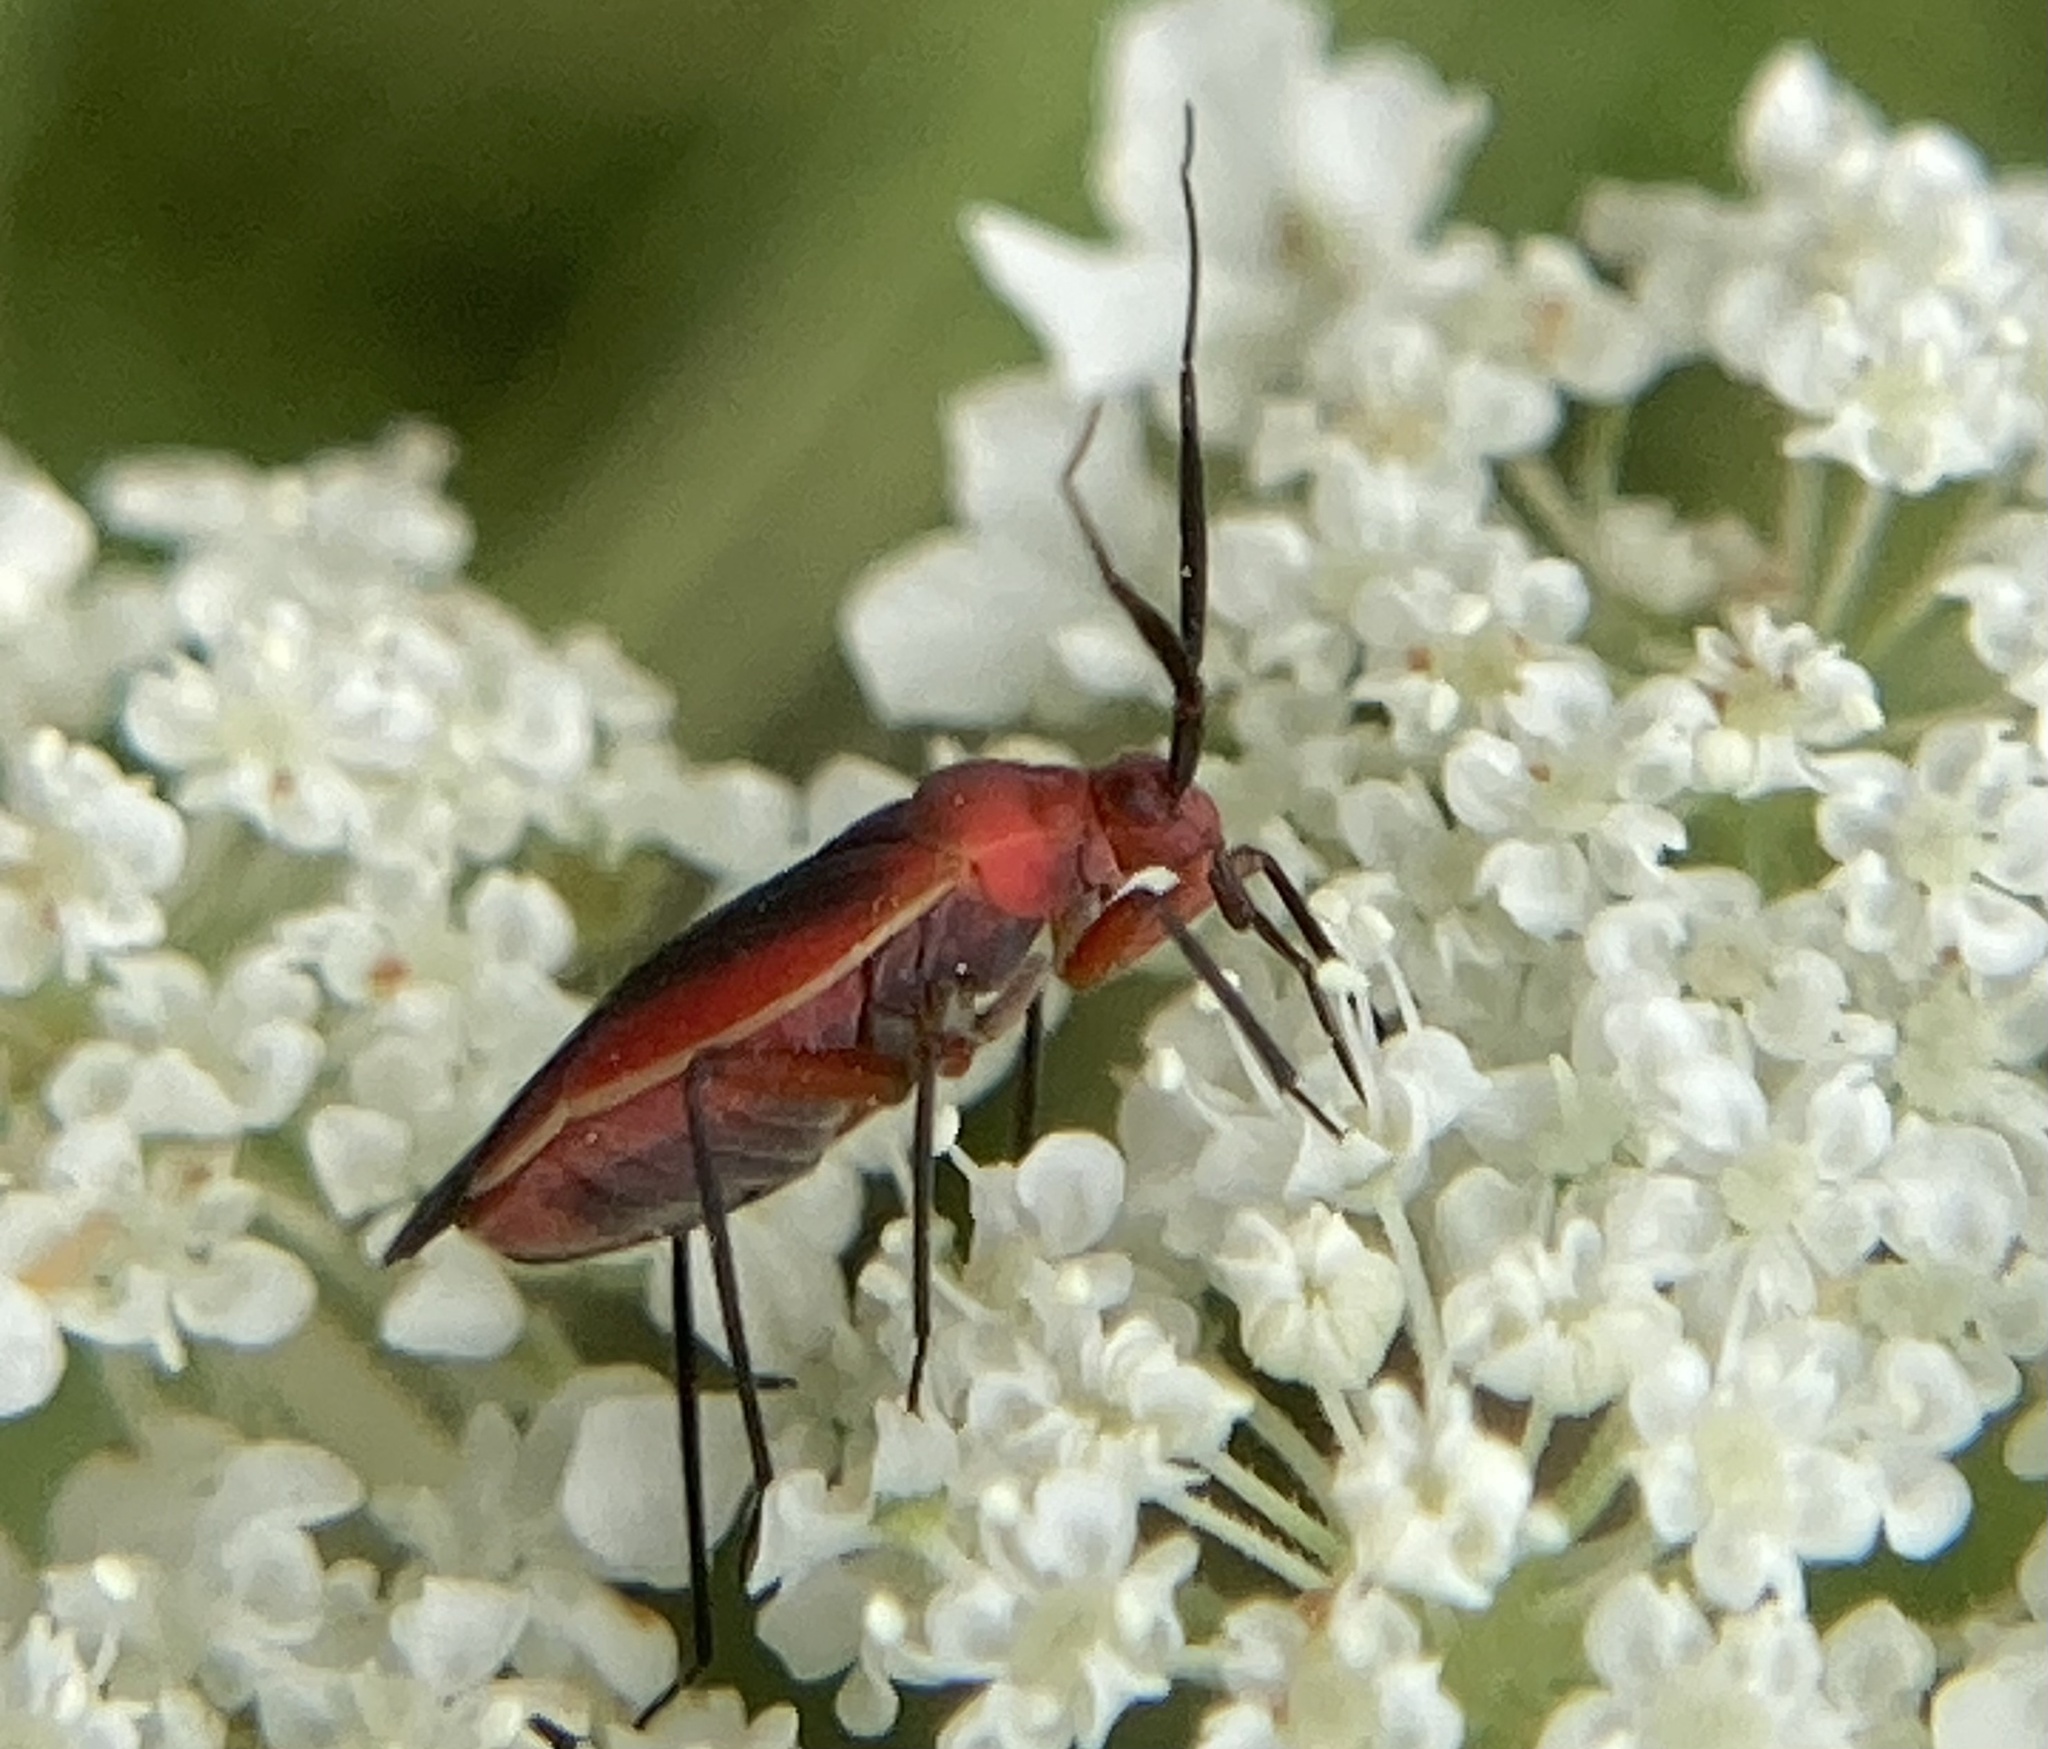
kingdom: Animalia
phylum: Arthropoda
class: Insecta
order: Hemiptera
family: Miridae
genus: Lopidea
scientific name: Lopidea instabilis
